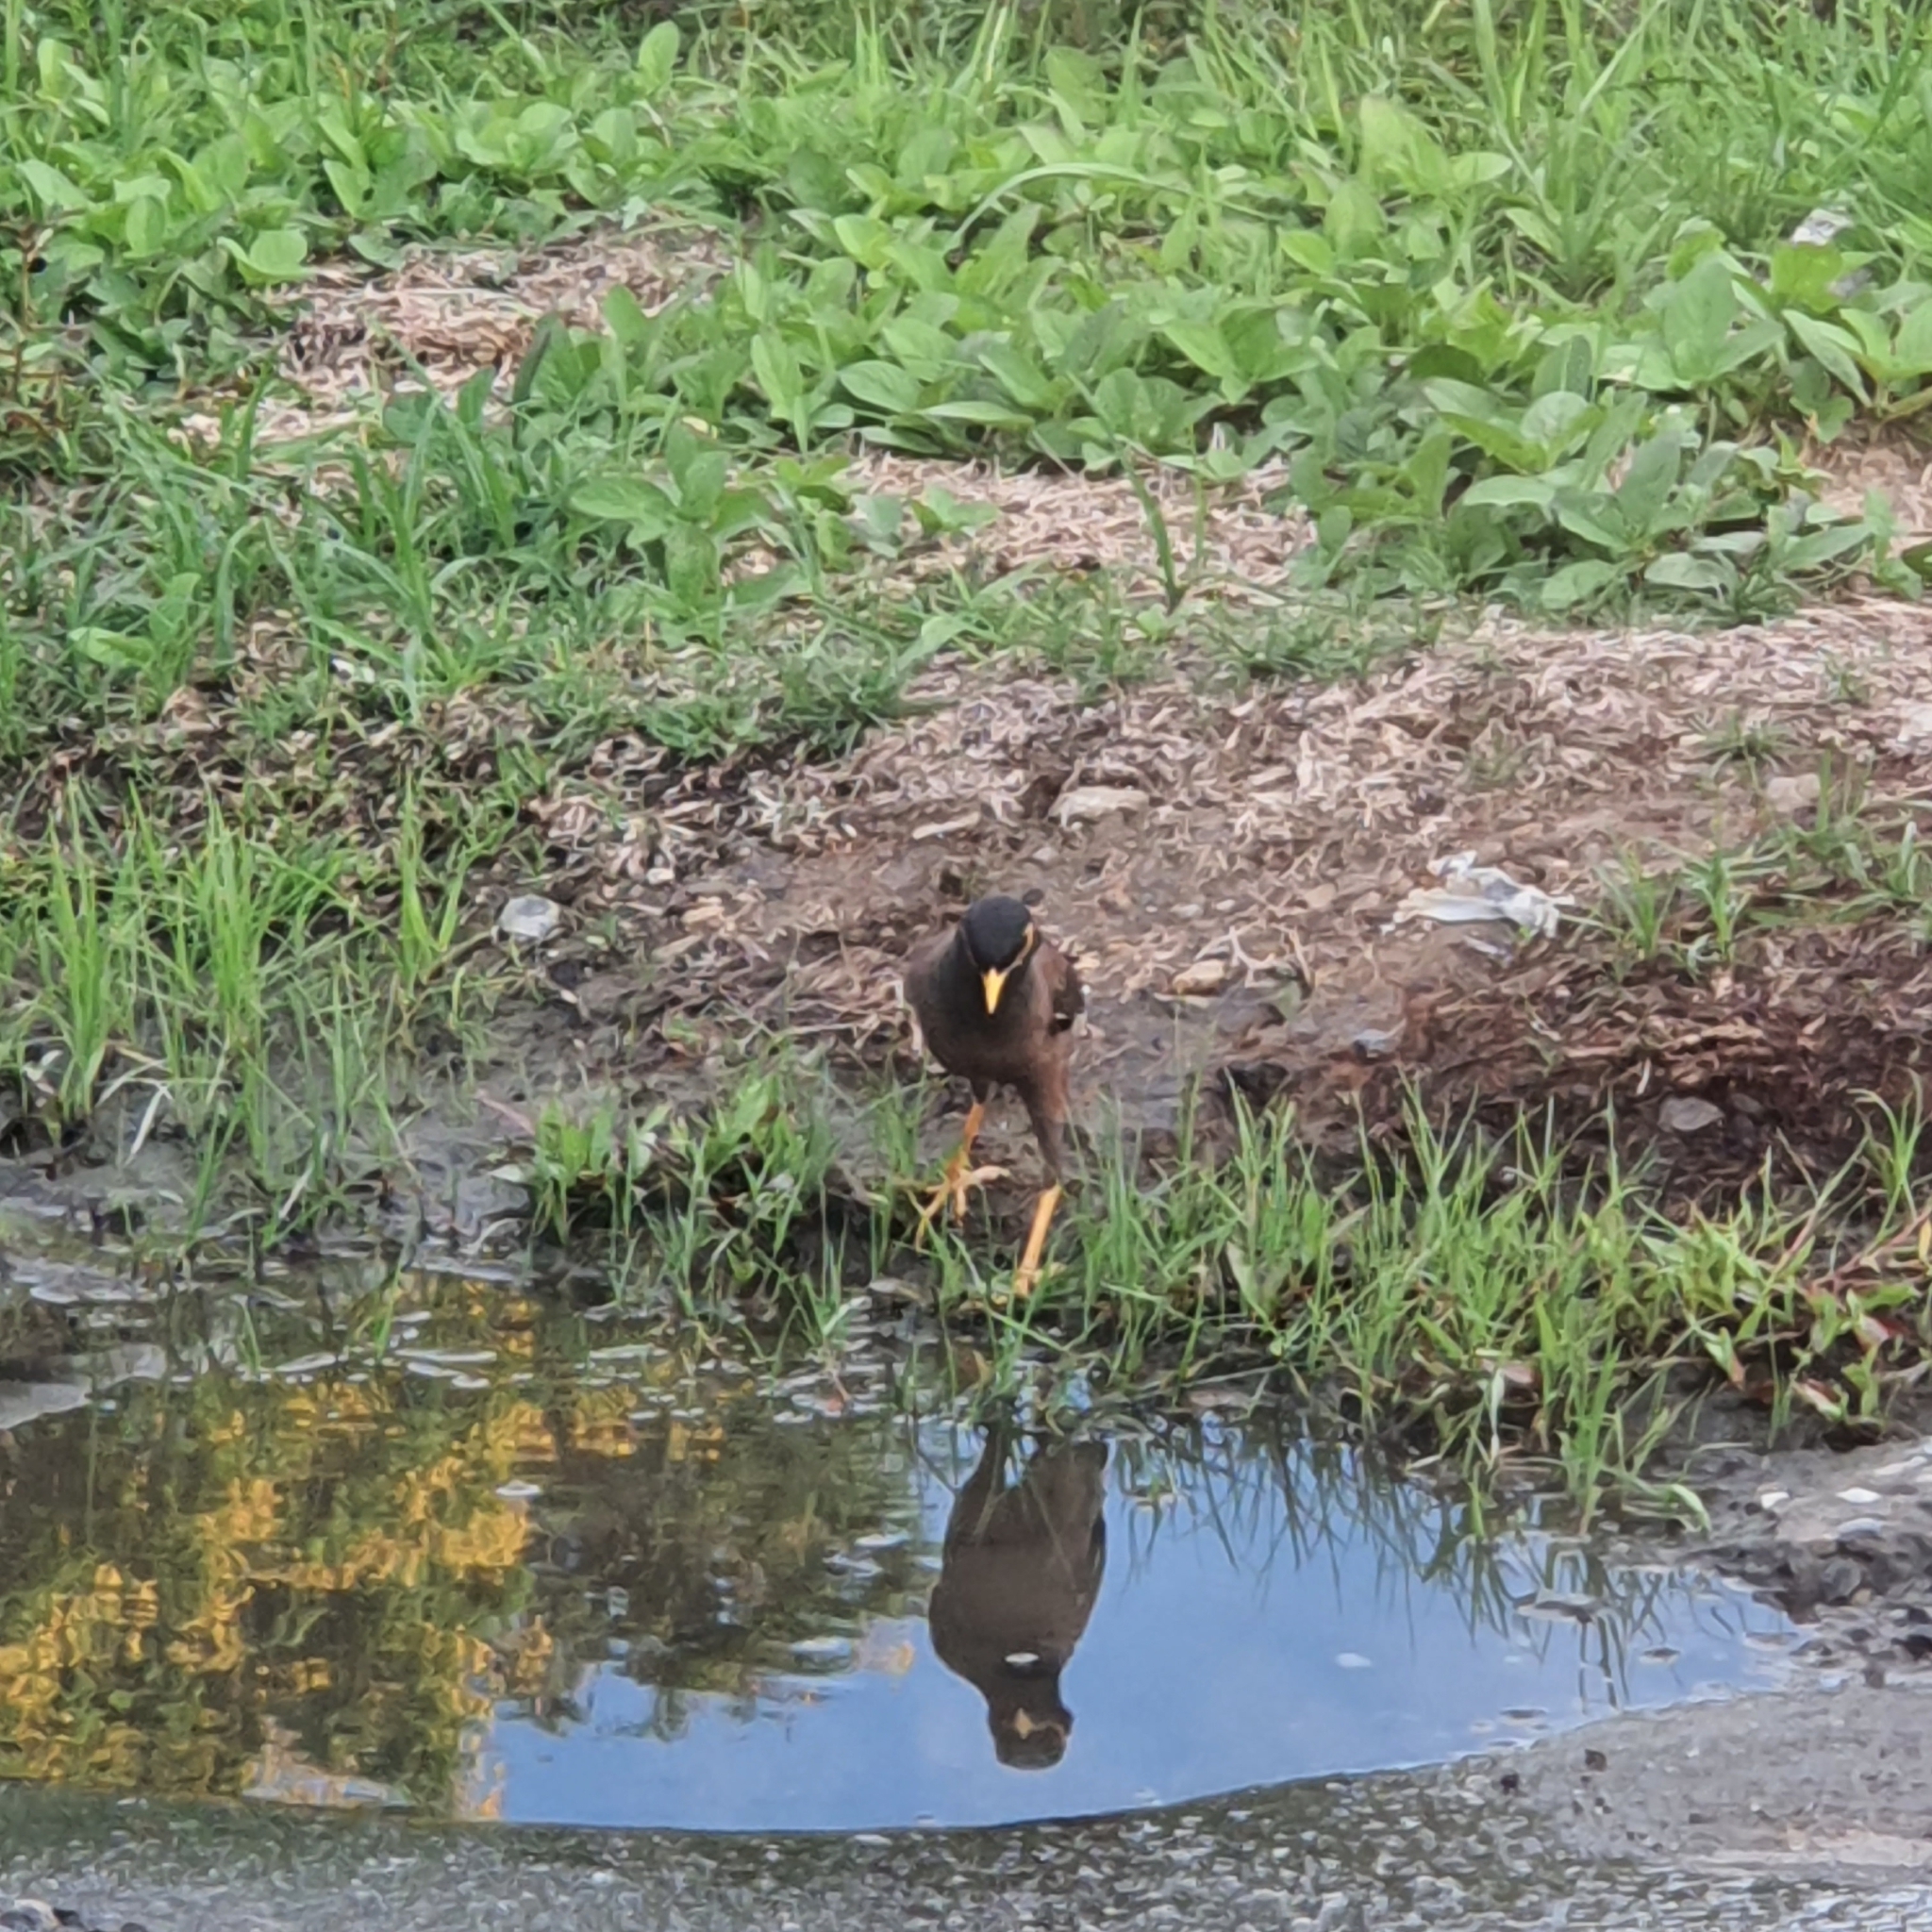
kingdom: Animalia
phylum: Chordata
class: Aves
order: Passeriformes
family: Sturnidae
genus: Acridotheres
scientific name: Acridotheres tristis
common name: Common myna
